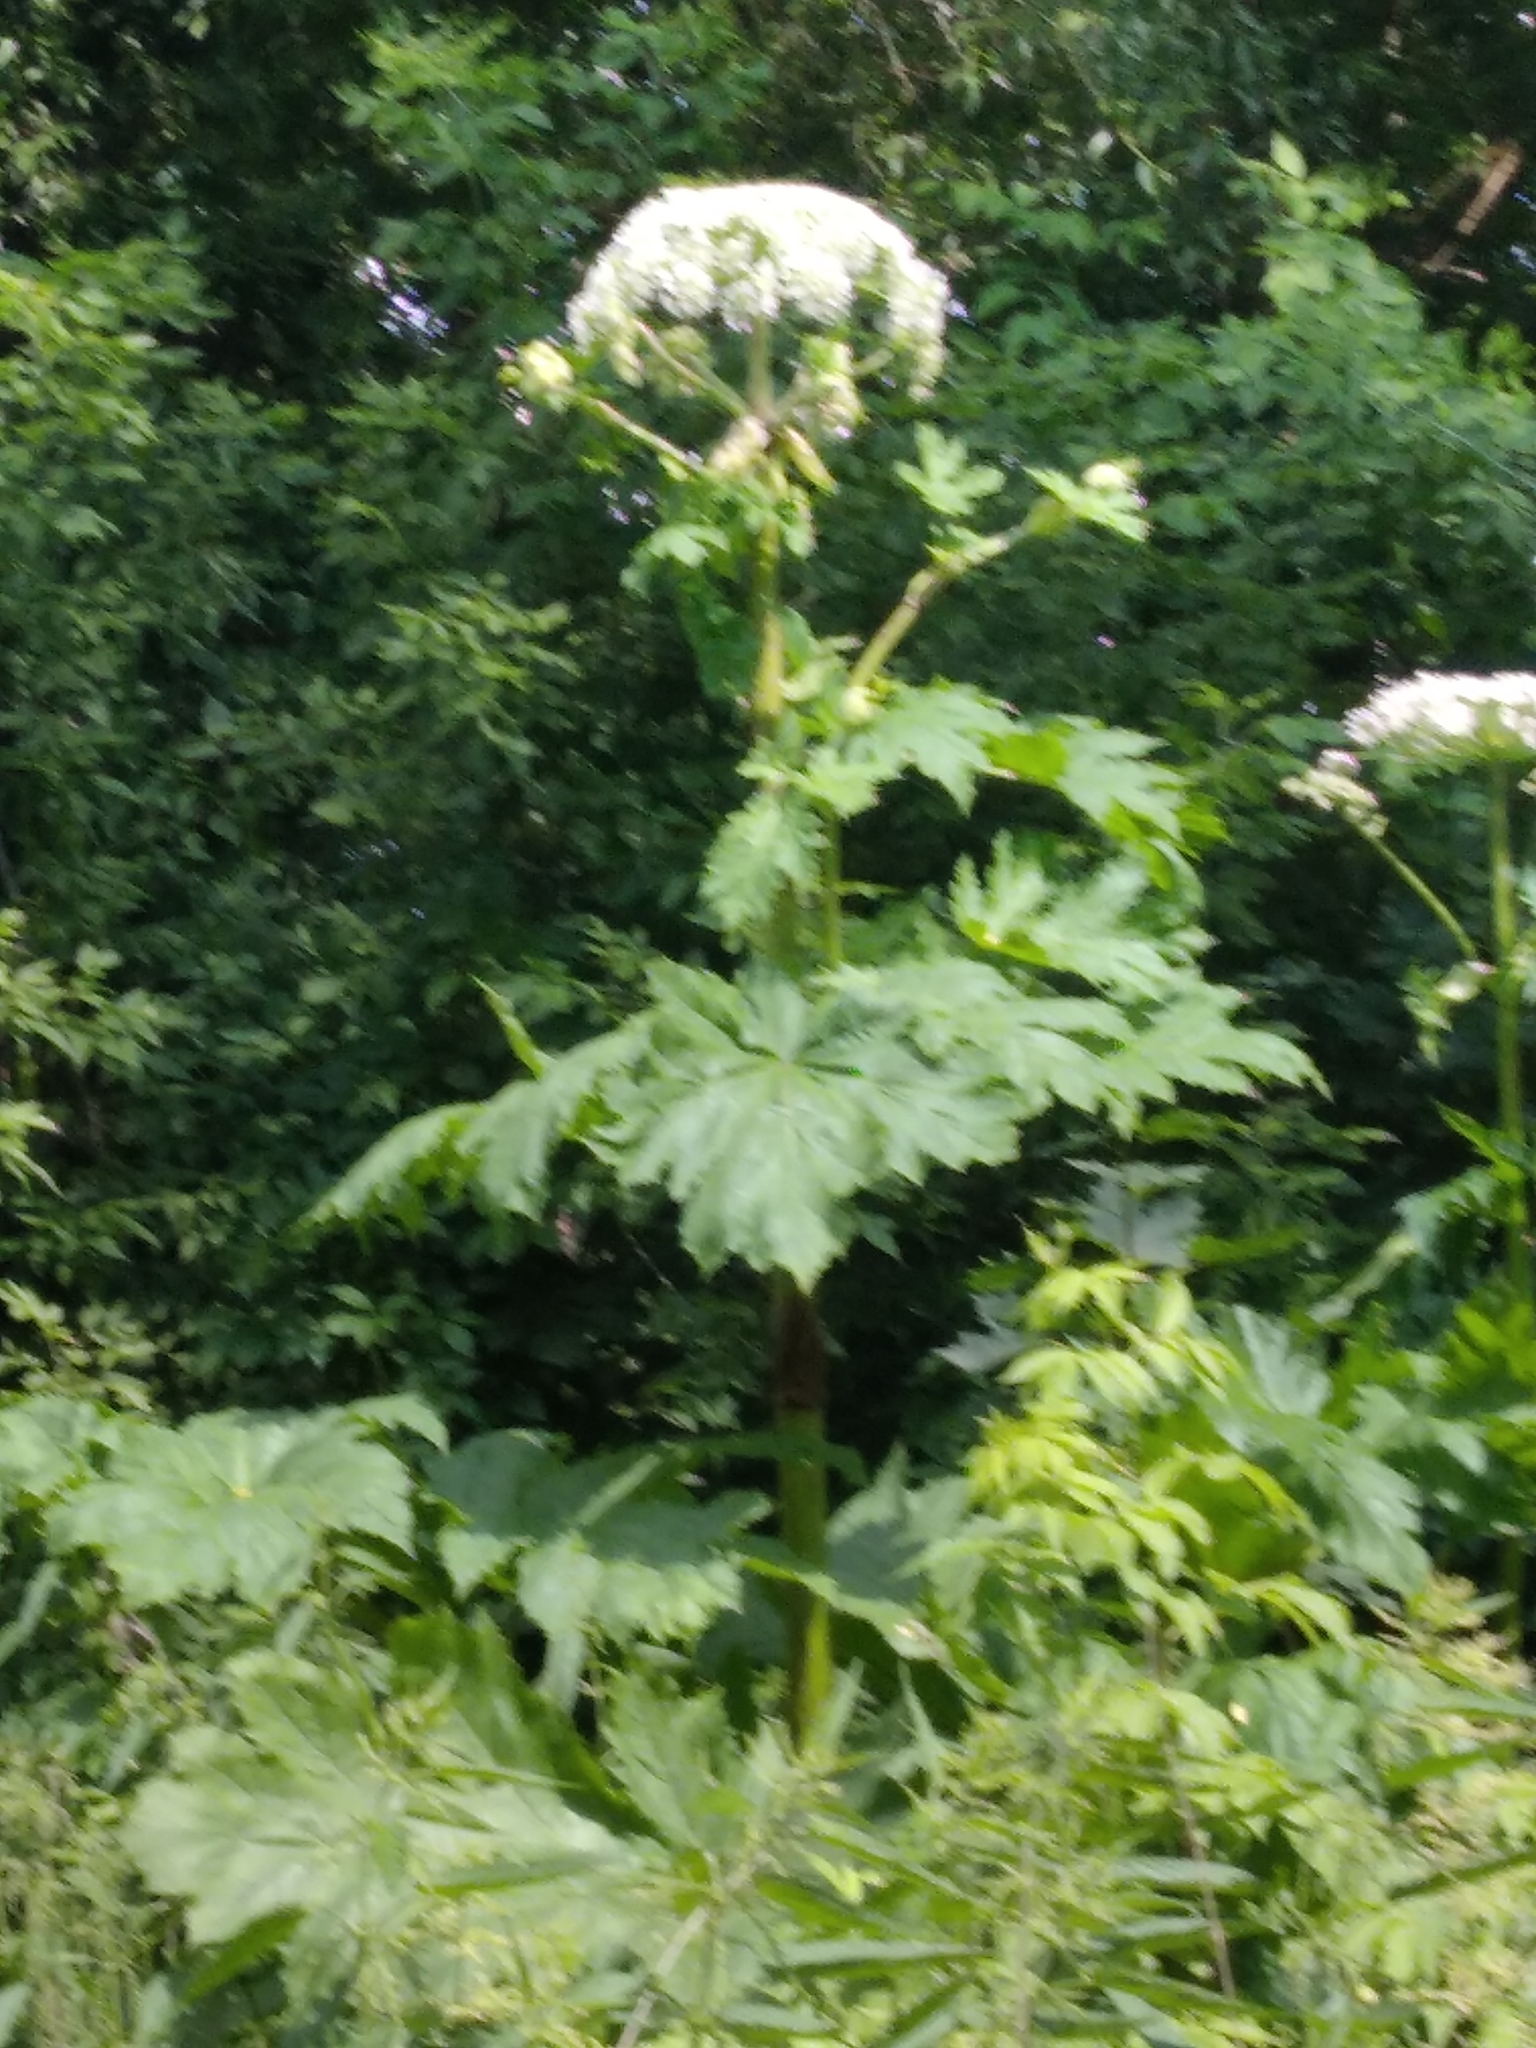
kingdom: Plantae
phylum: Tracheophyta
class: Magnoliopsida
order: Apiales
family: Apiaceae
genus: Heracleum
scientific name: Heracleum sosnowskyi
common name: Sosnowsky's hogweed
